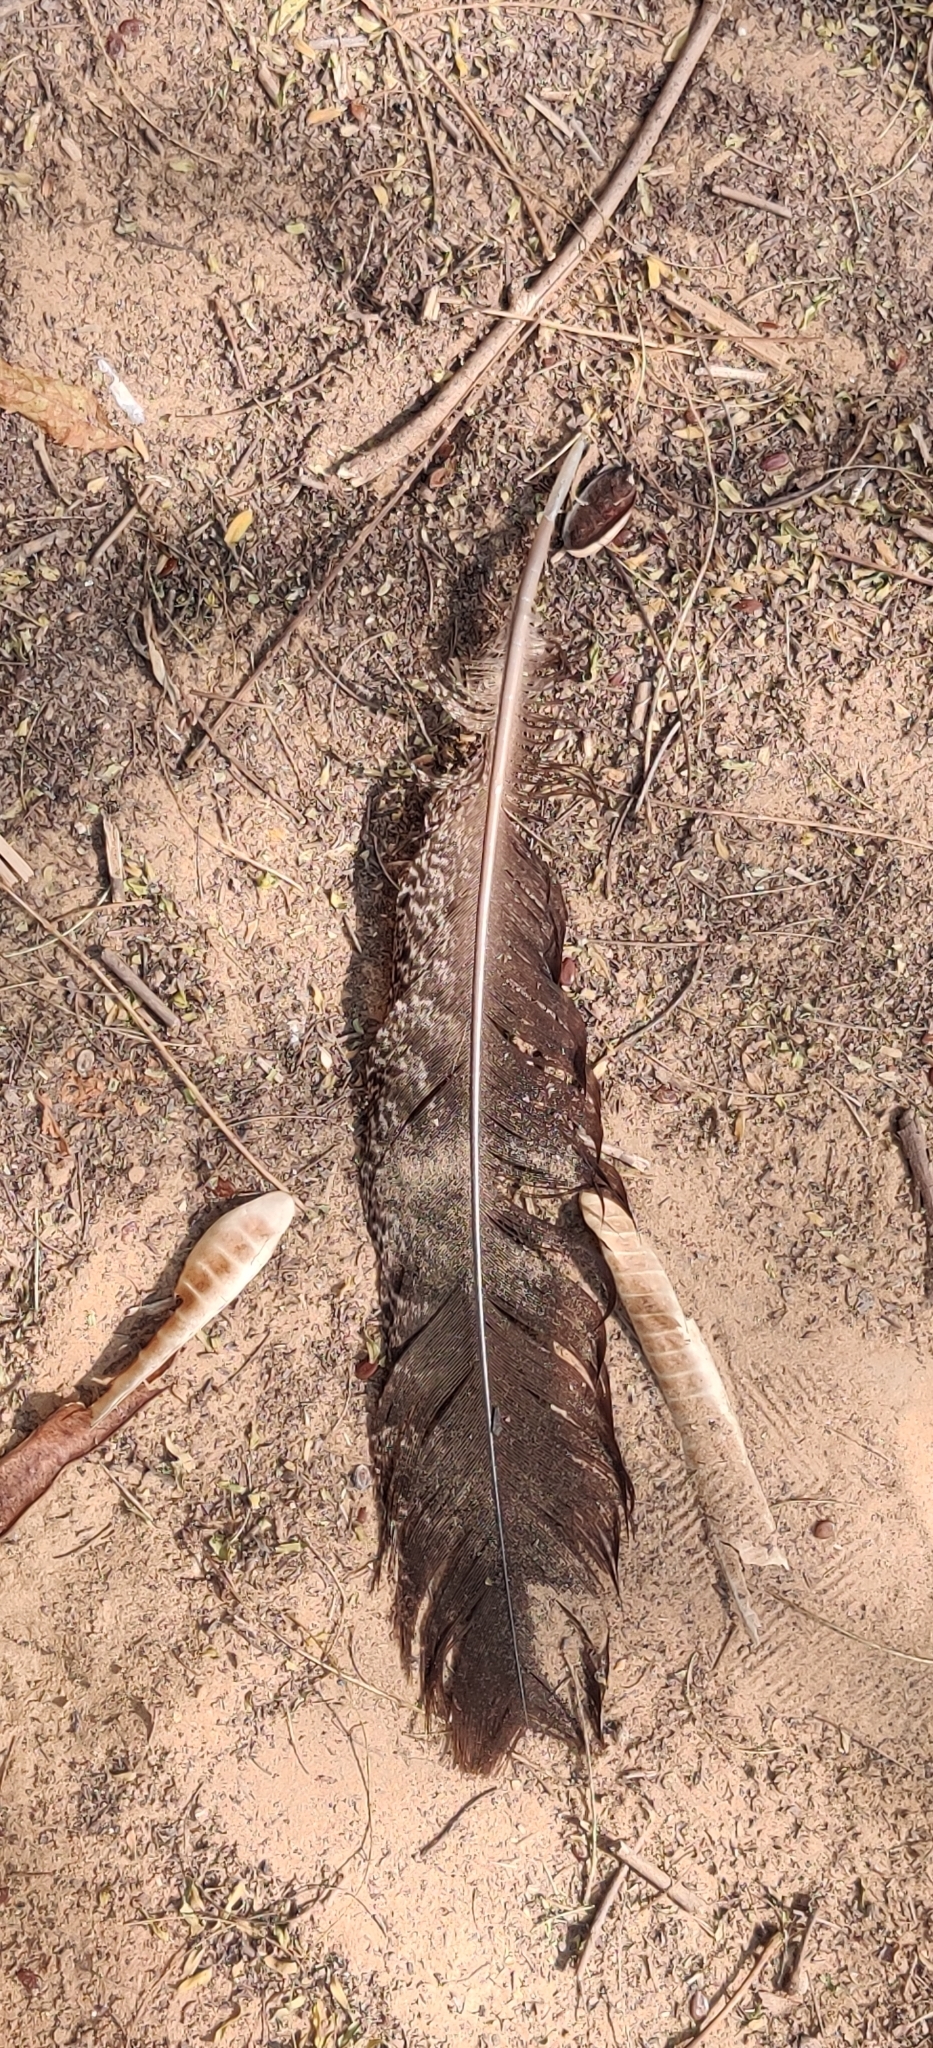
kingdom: Animalia
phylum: Chordata
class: Aves
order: Galliformes
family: Phasianidae
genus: Pavo
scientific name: Pavo cristatus
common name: Indian peafowl
